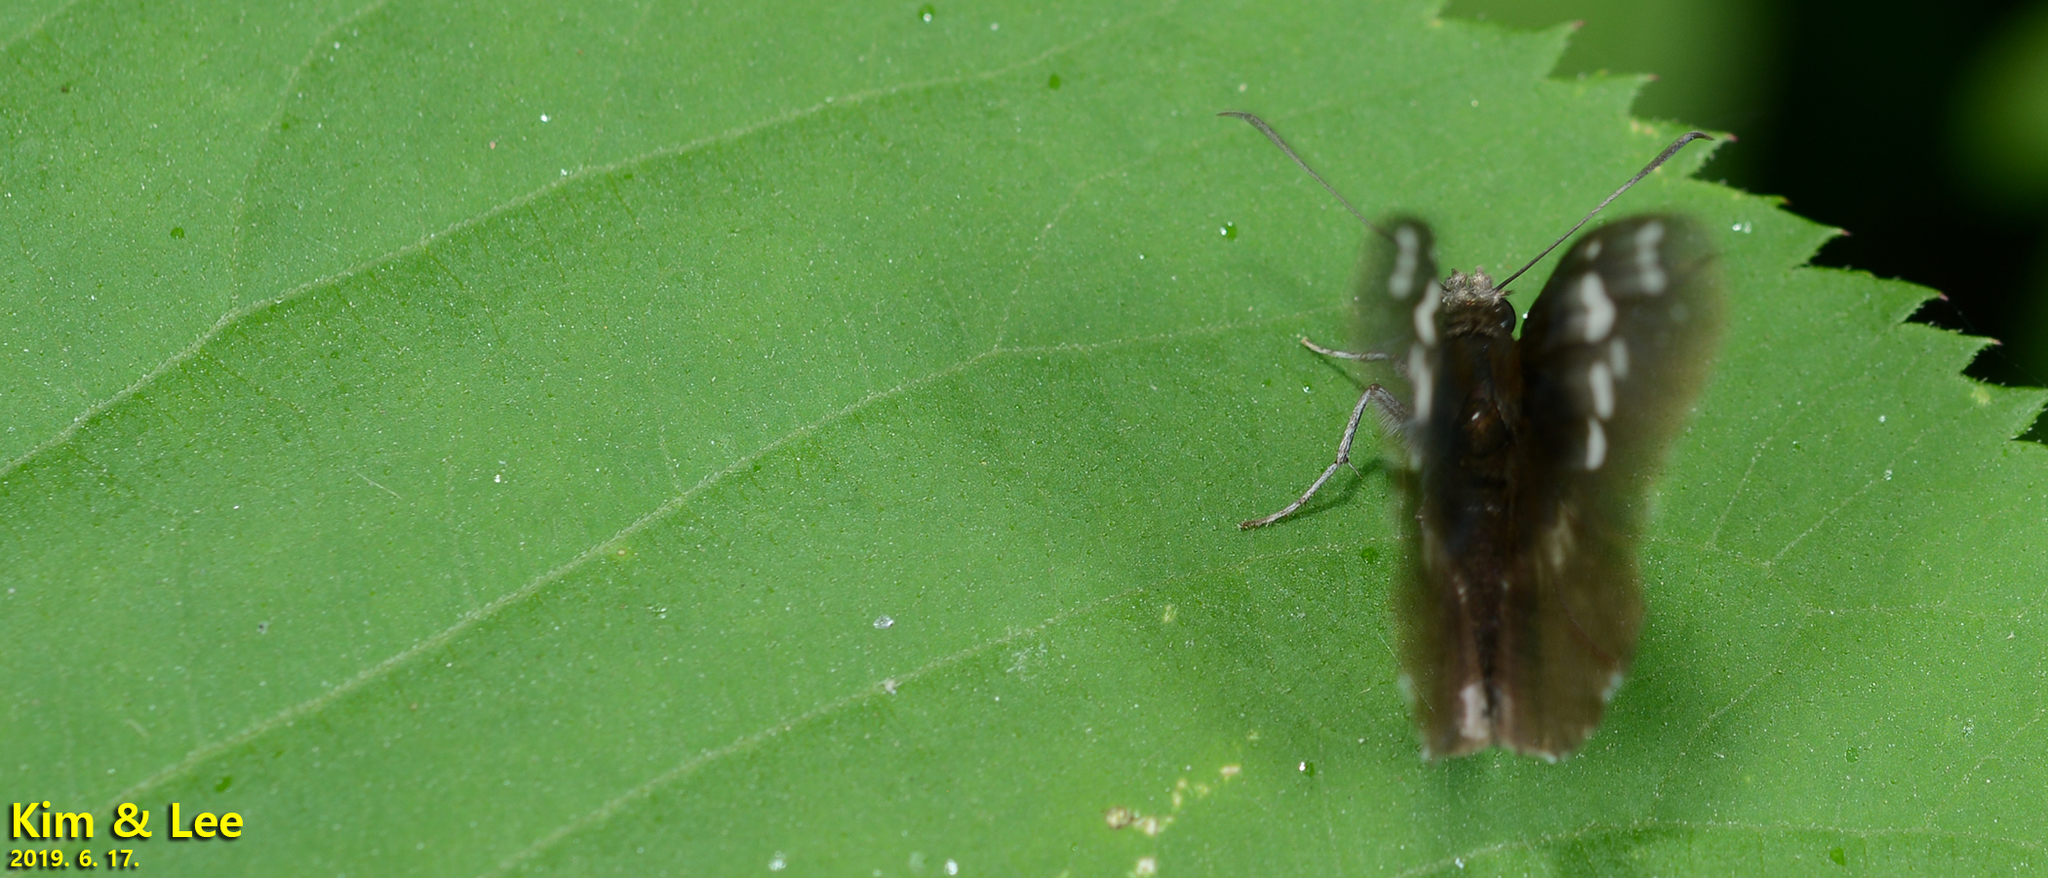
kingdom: Animalia
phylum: Arthropoda
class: Insecta
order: Lepidoptera
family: Hesperiidae
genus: Daimio
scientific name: Daimio tethys
